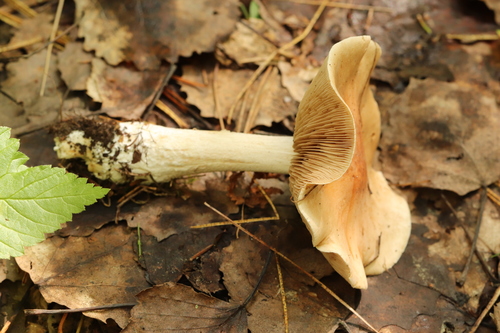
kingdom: Fungi
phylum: Basidiomycota
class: Agaricomycetes
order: Agaricales
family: Hymenogastraceae
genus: Hebeloma
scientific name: Hebeloma sarcophyllum
